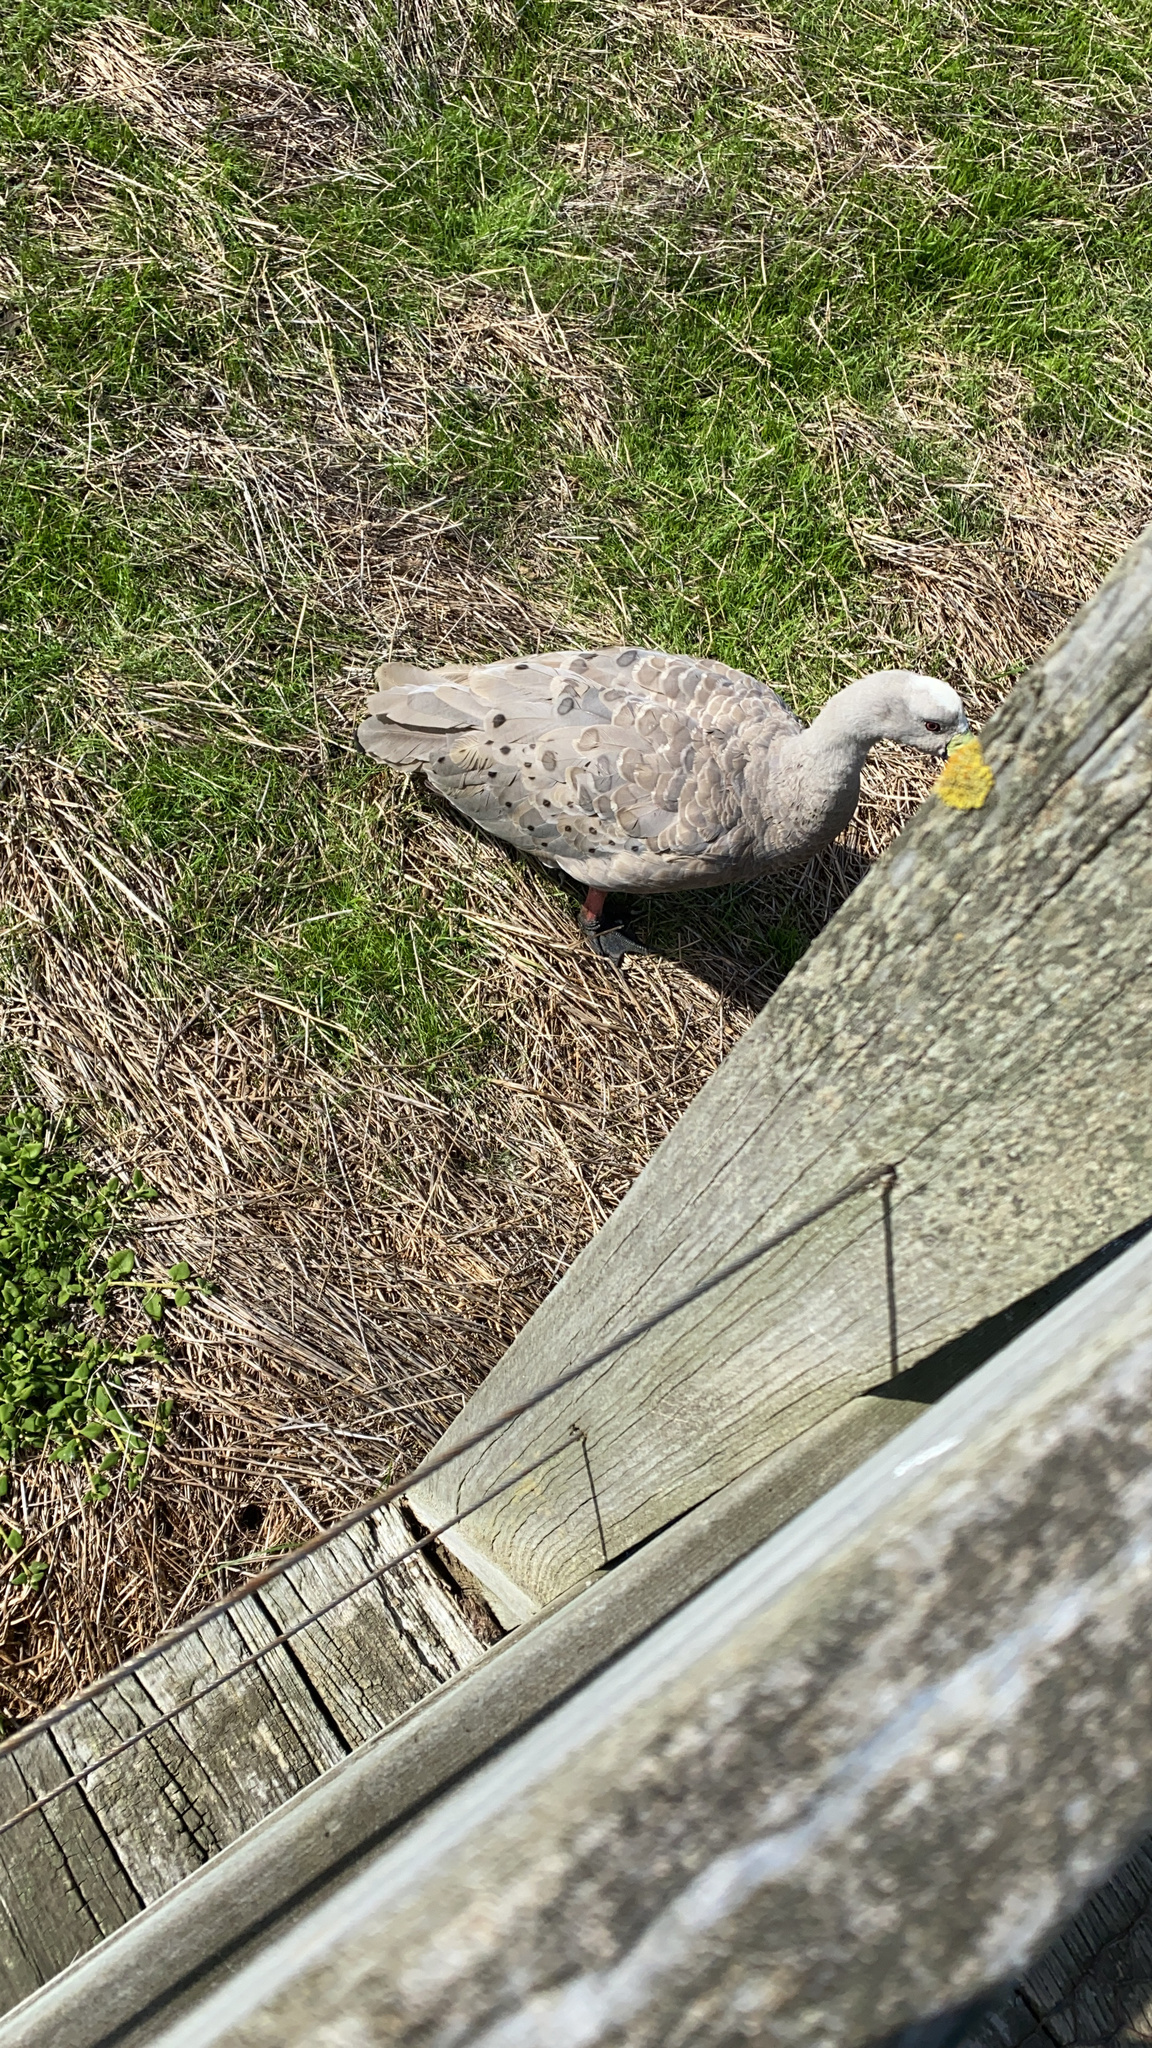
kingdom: Animalia
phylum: Chordata
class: Aves
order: Anseriformes
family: Anatidae
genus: Cereopsis
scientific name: Cereopsis novaehollandiae
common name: Cape barren goose
